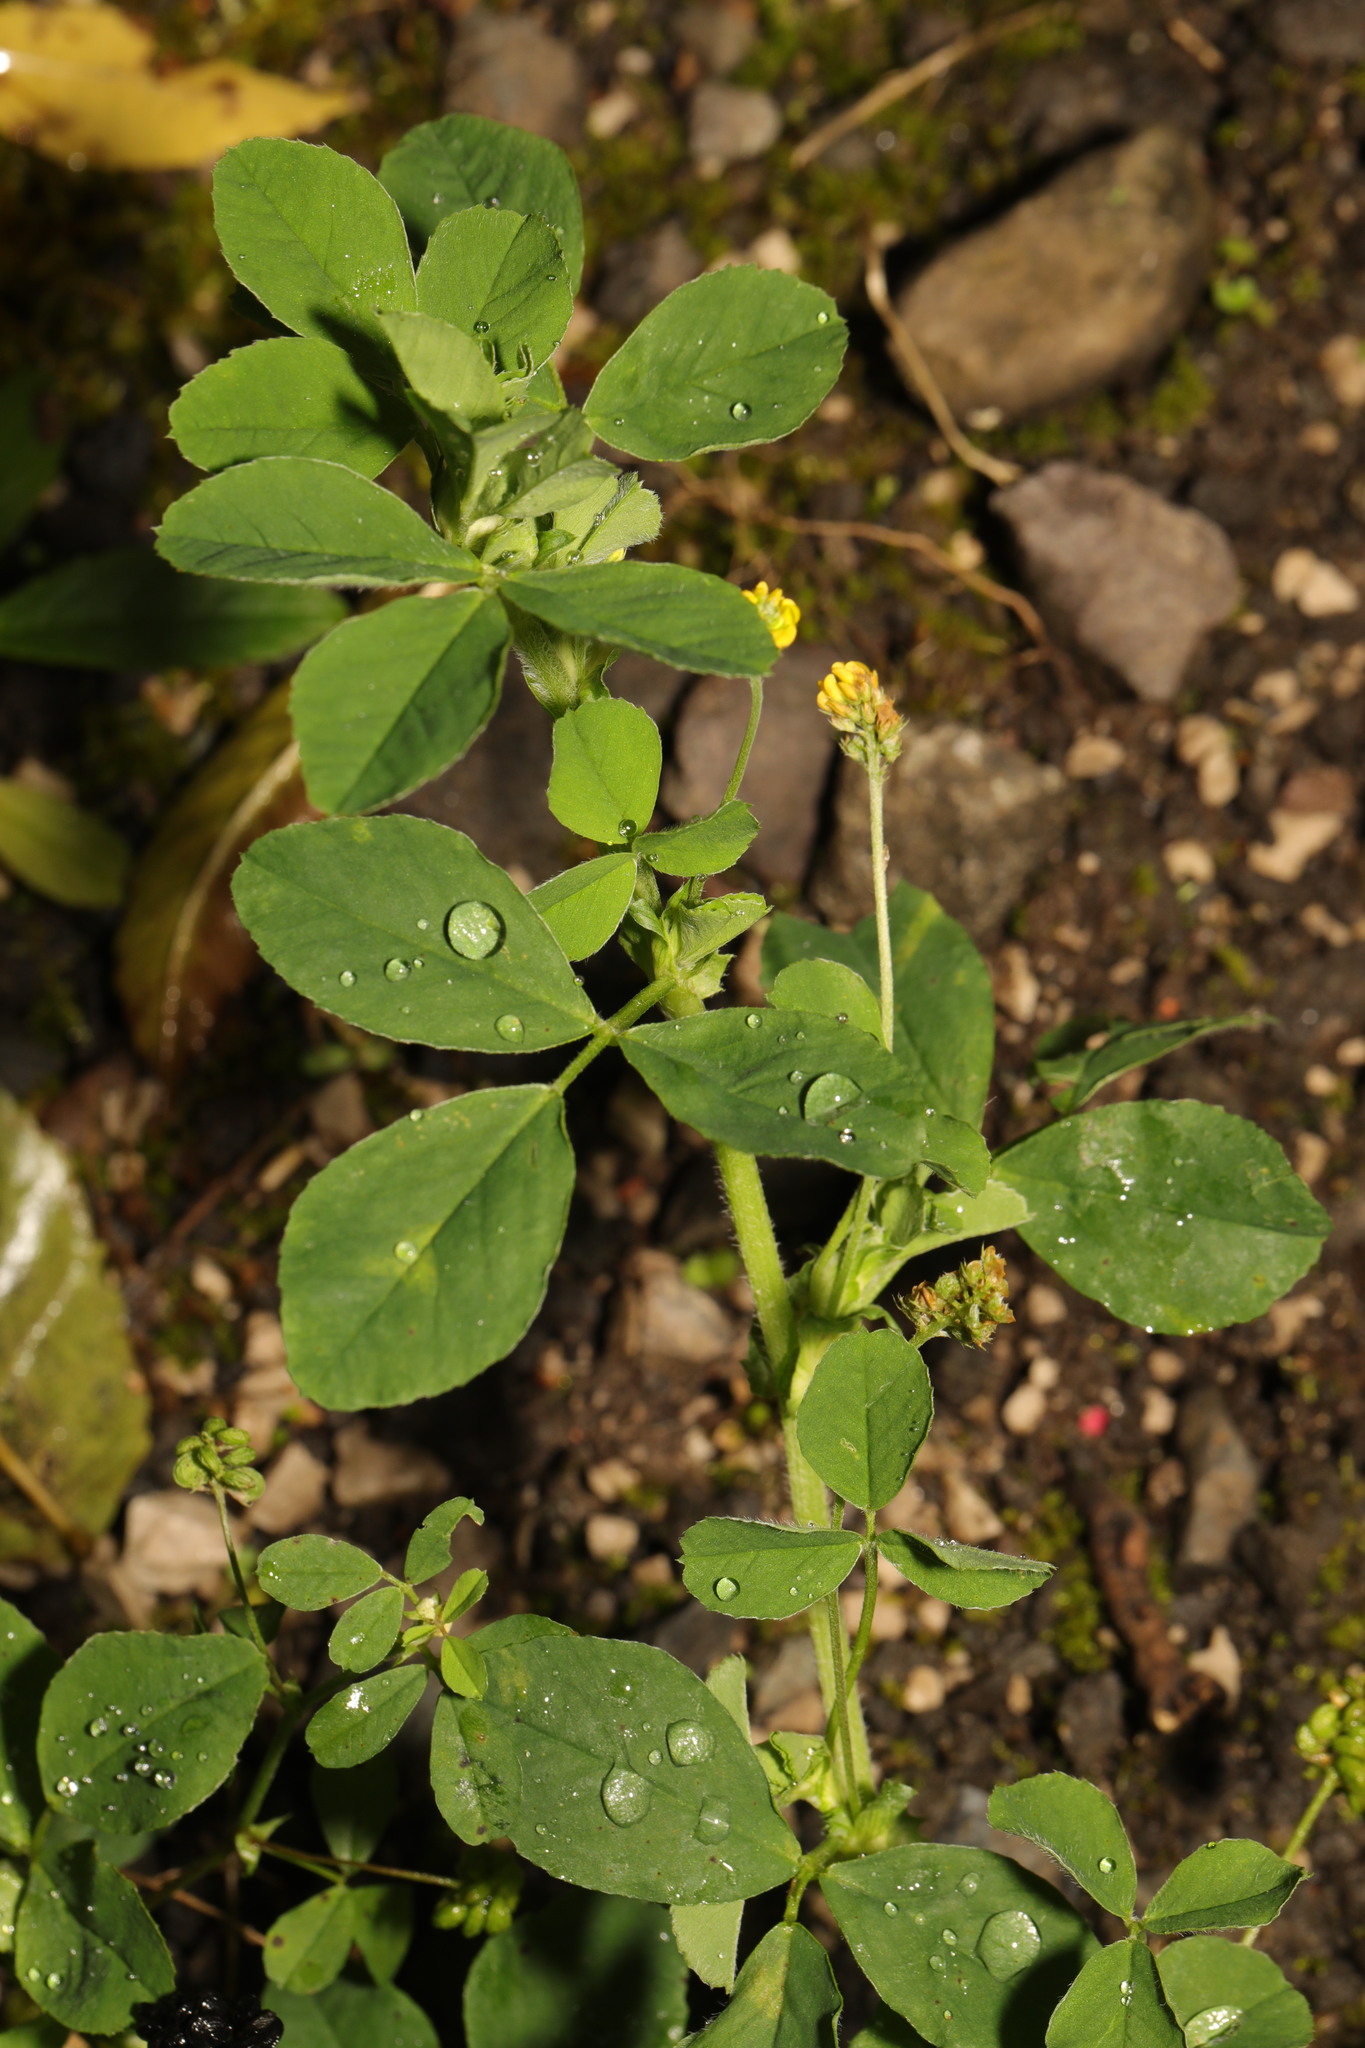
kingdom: Plantae
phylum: Tracheophyta
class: Magnoliopsida
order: Fabales
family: Fabaceae
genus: Medicago
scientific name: Medicago lupulina
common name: Black medick
